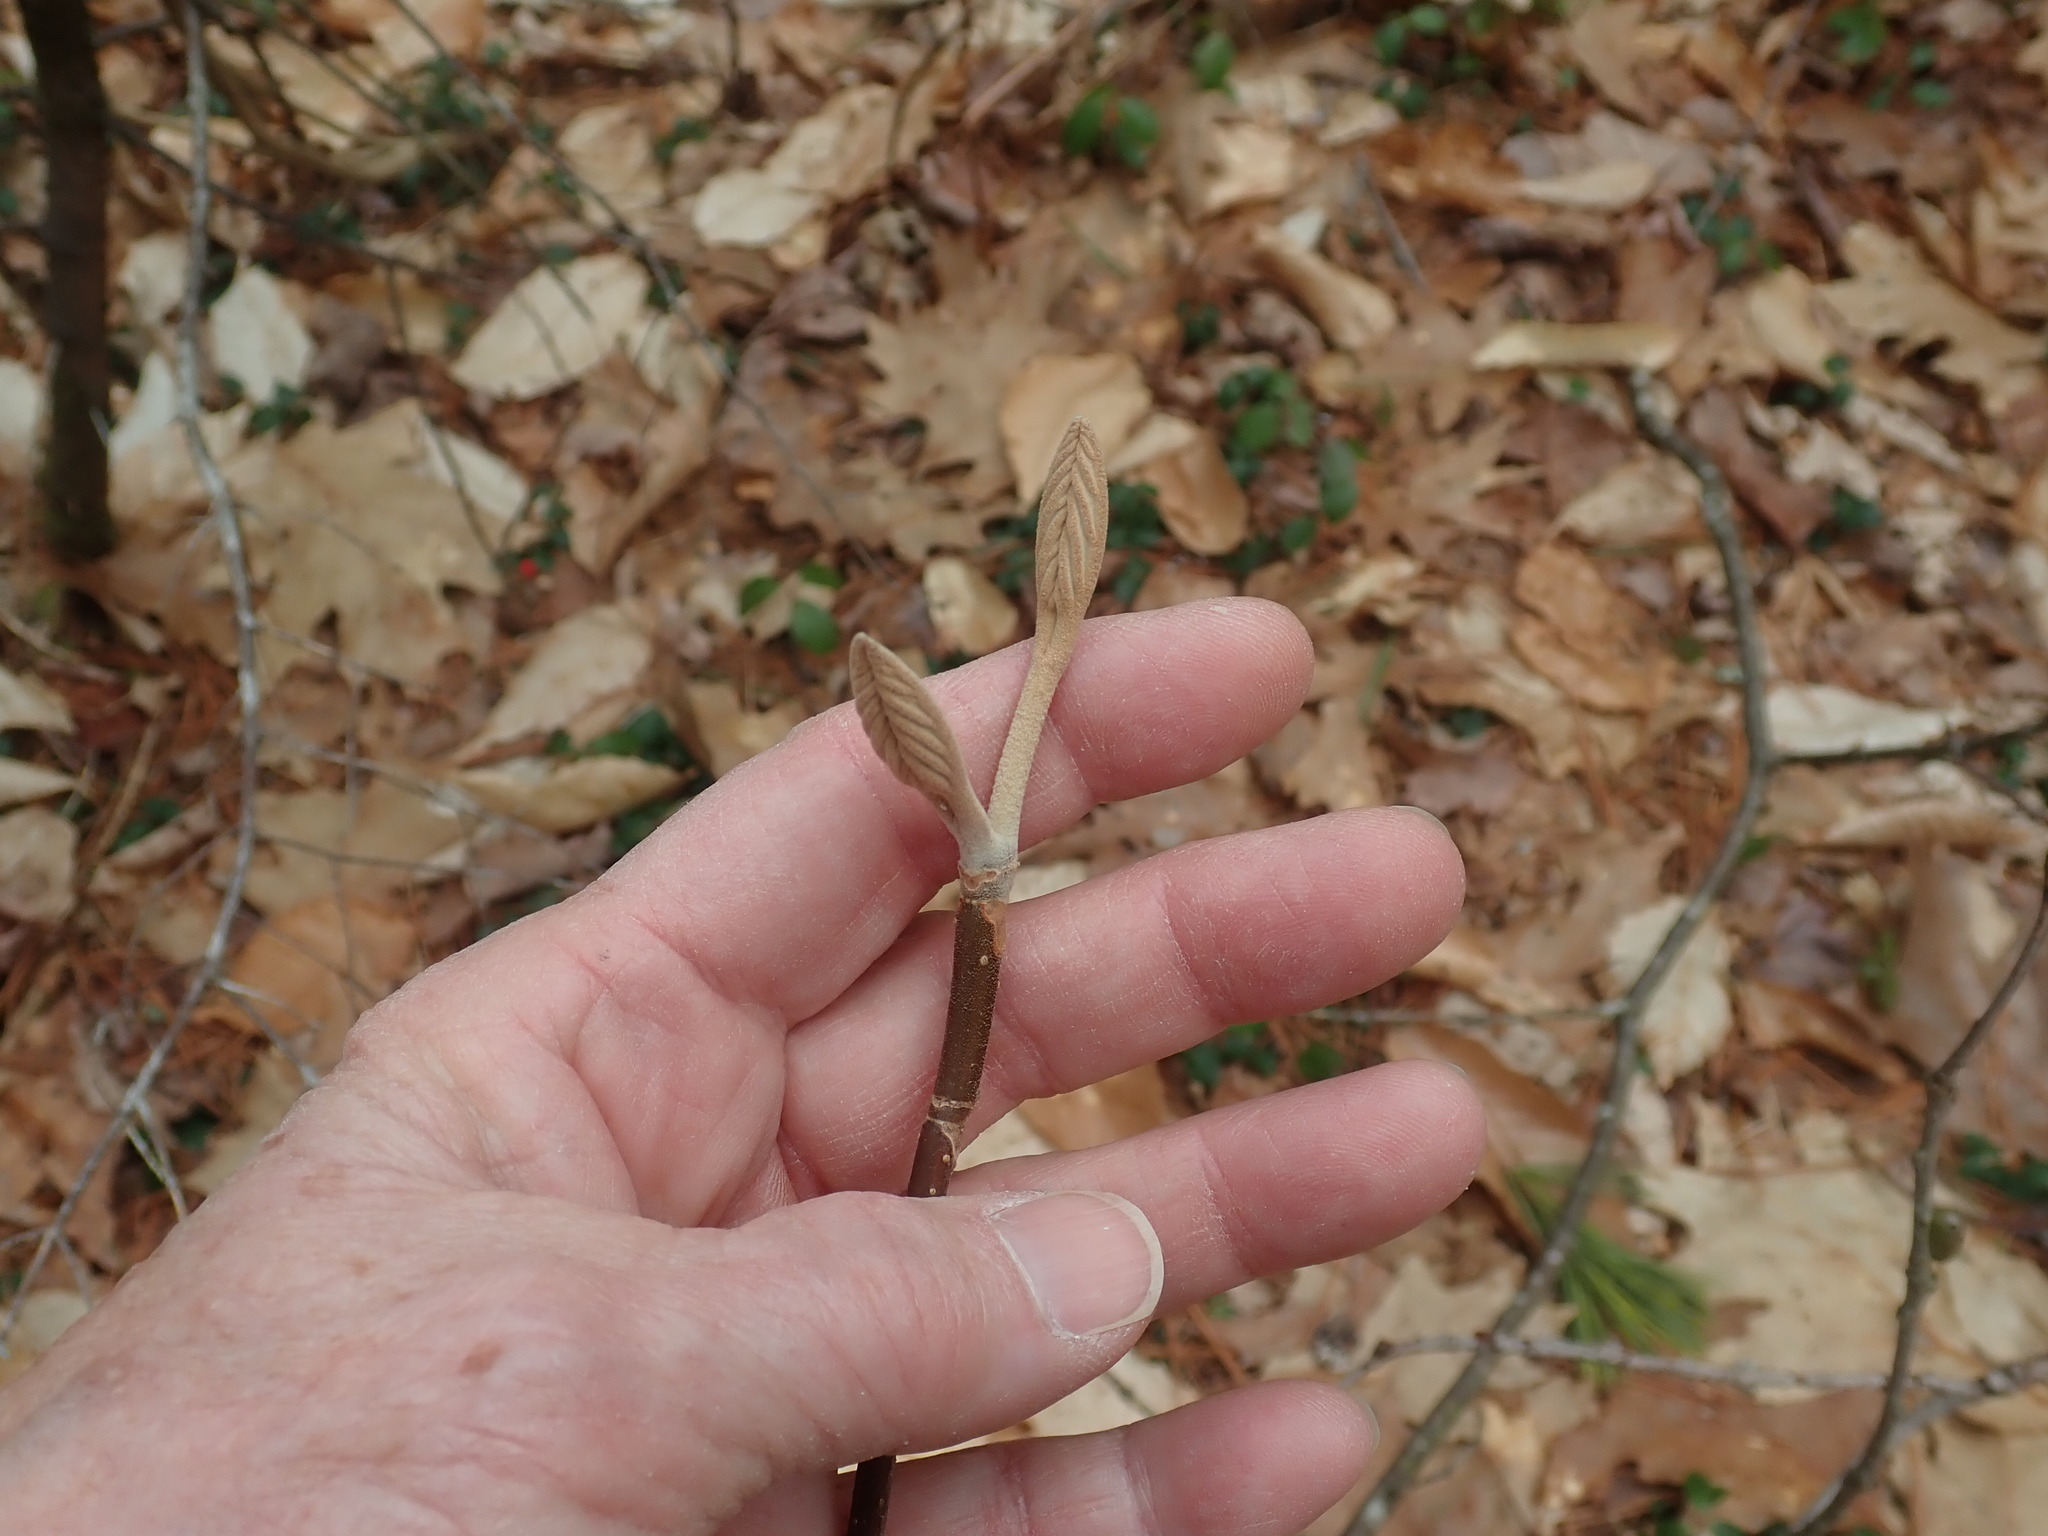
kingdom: Plantae
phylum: Tracheophyta
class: Magnoliopsida
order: Dipsacales
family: Viburnaceae
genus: Viburnum
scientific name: Viburnum lantanoides
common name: Hobblebush
